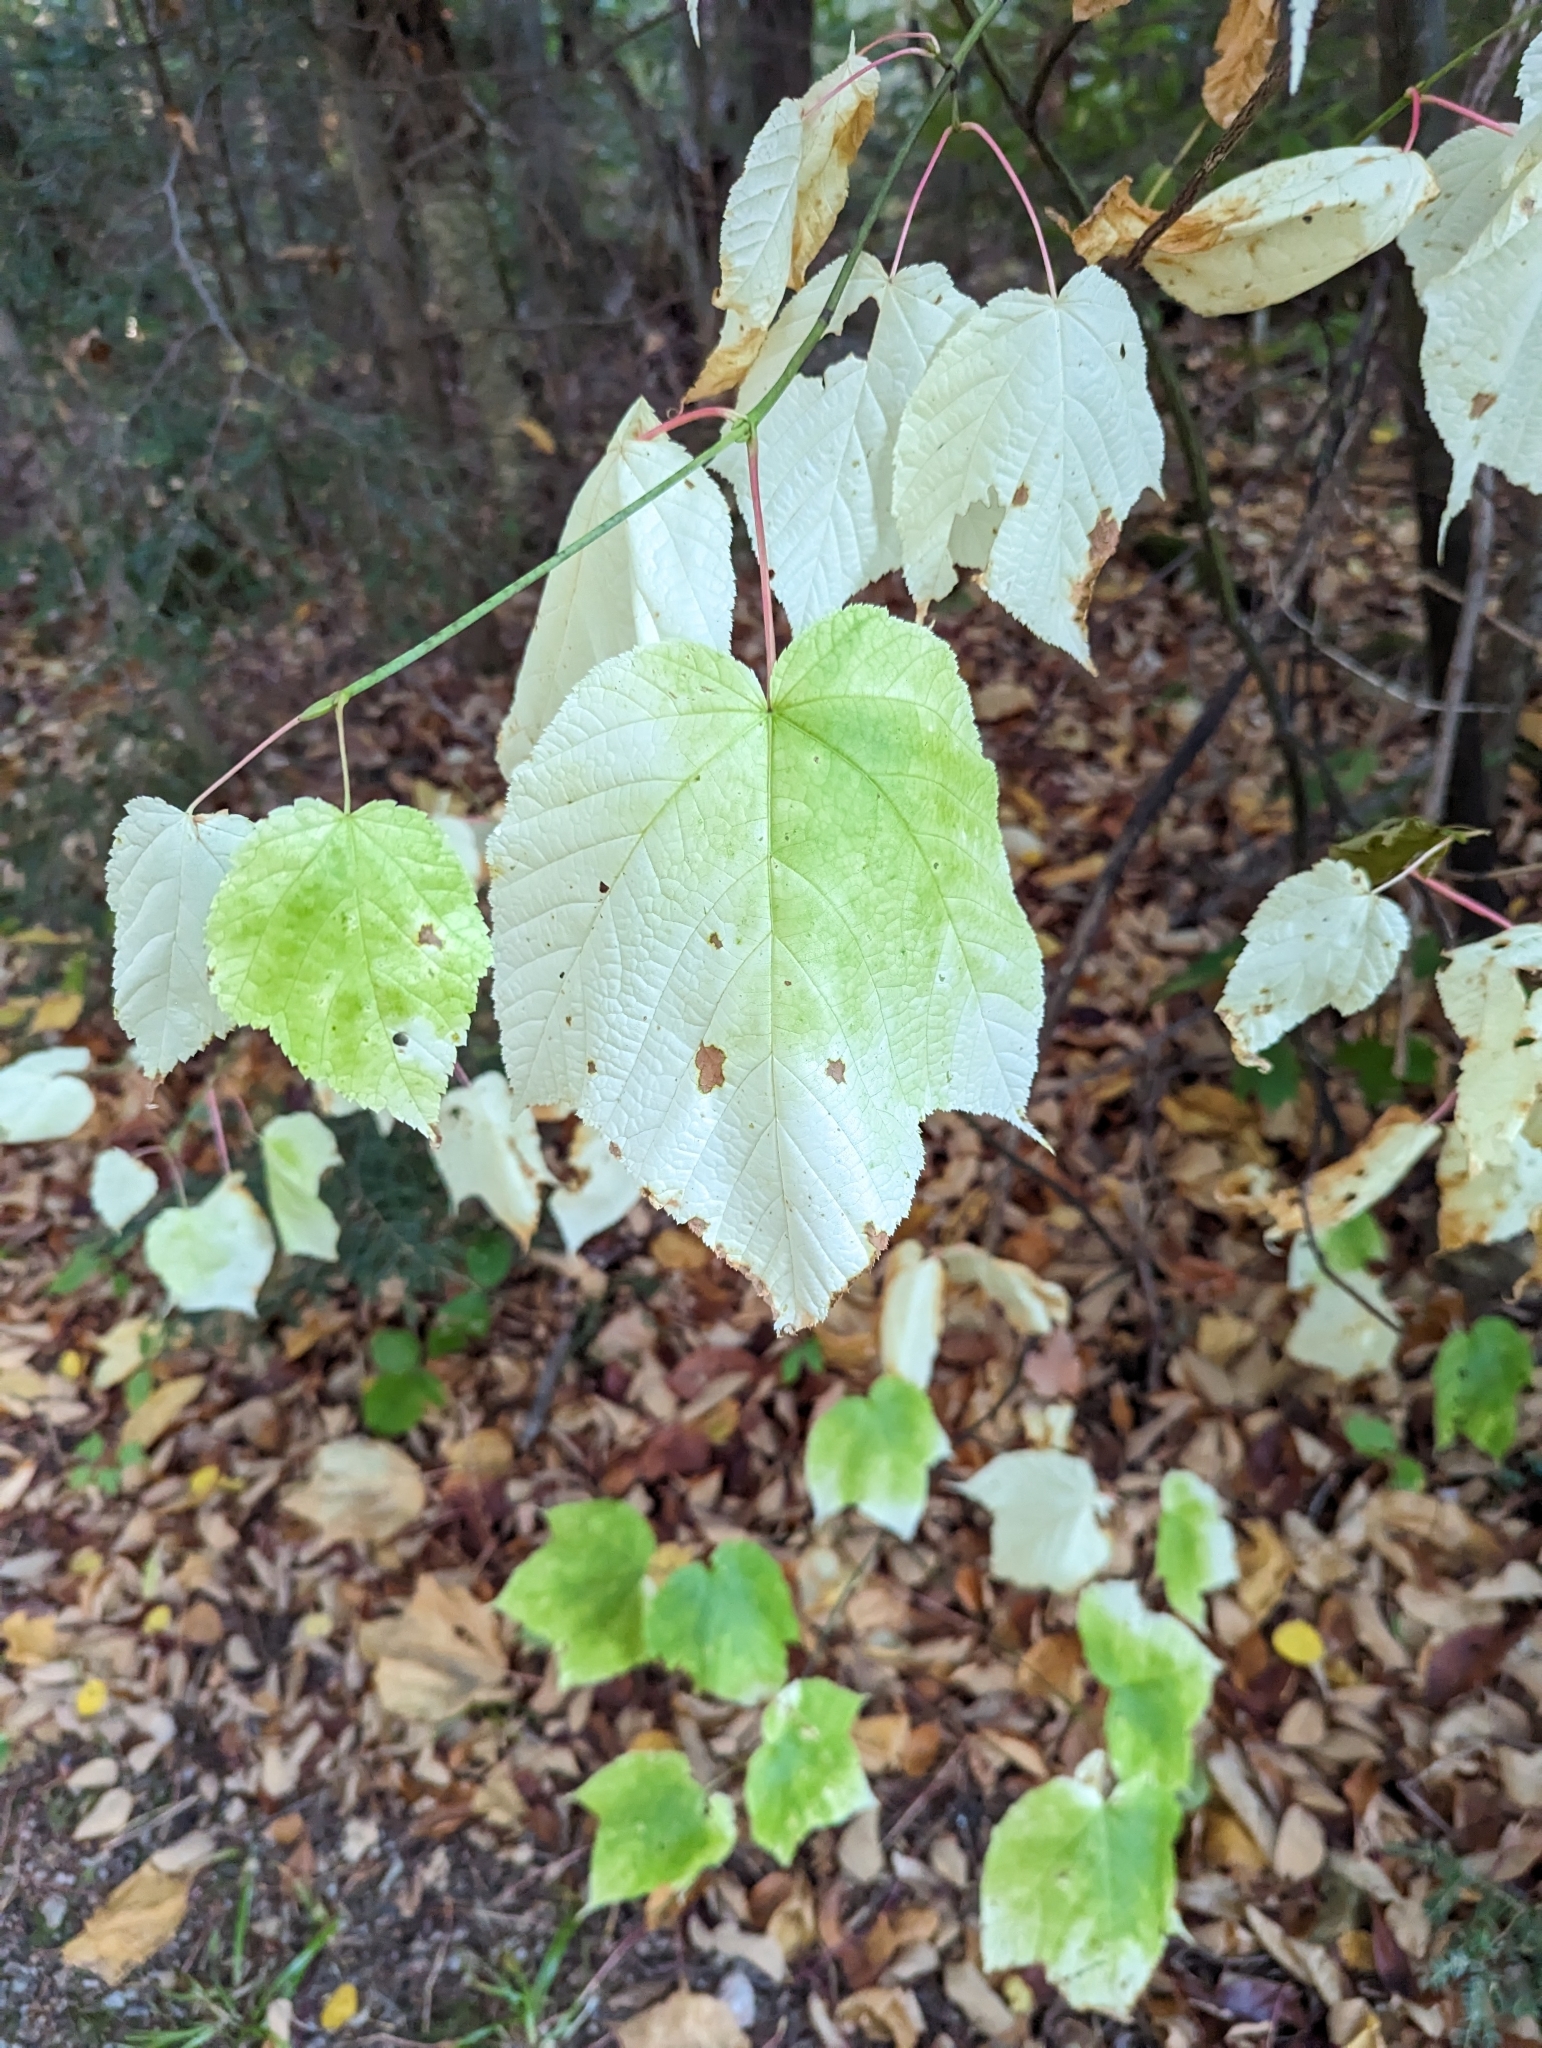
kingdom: Plantae
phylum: Tracheophyta
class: Magnoliopsida
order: Sapindales
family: Sapindaceae
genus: Acer
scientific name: Acer pensylvanicum
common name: Moosewood
